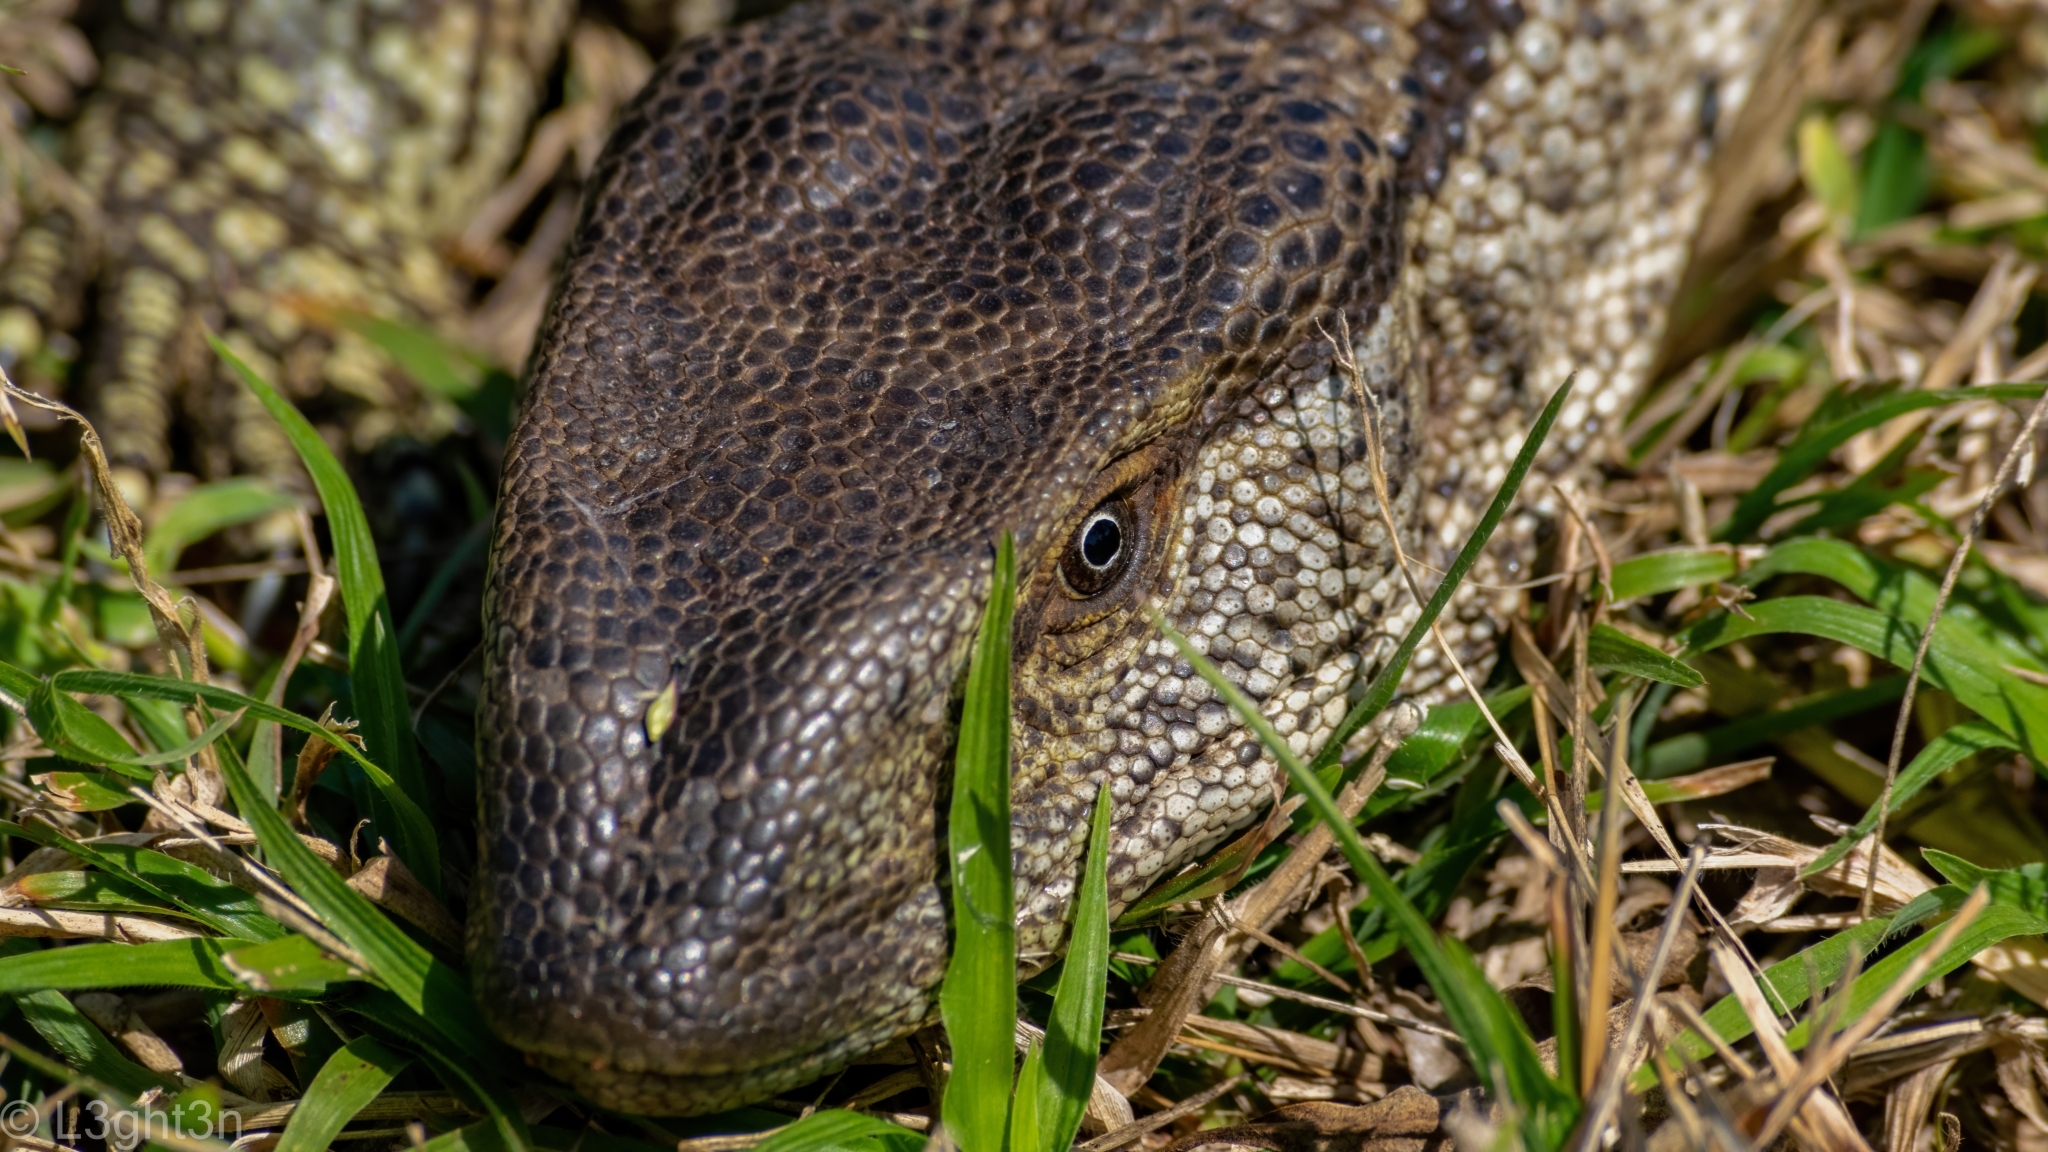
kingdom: Animalia
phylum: Chordata
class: Squamata
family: Varanidae
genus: Varanus
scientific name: Varanus albigularis
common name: White-throated monitor
